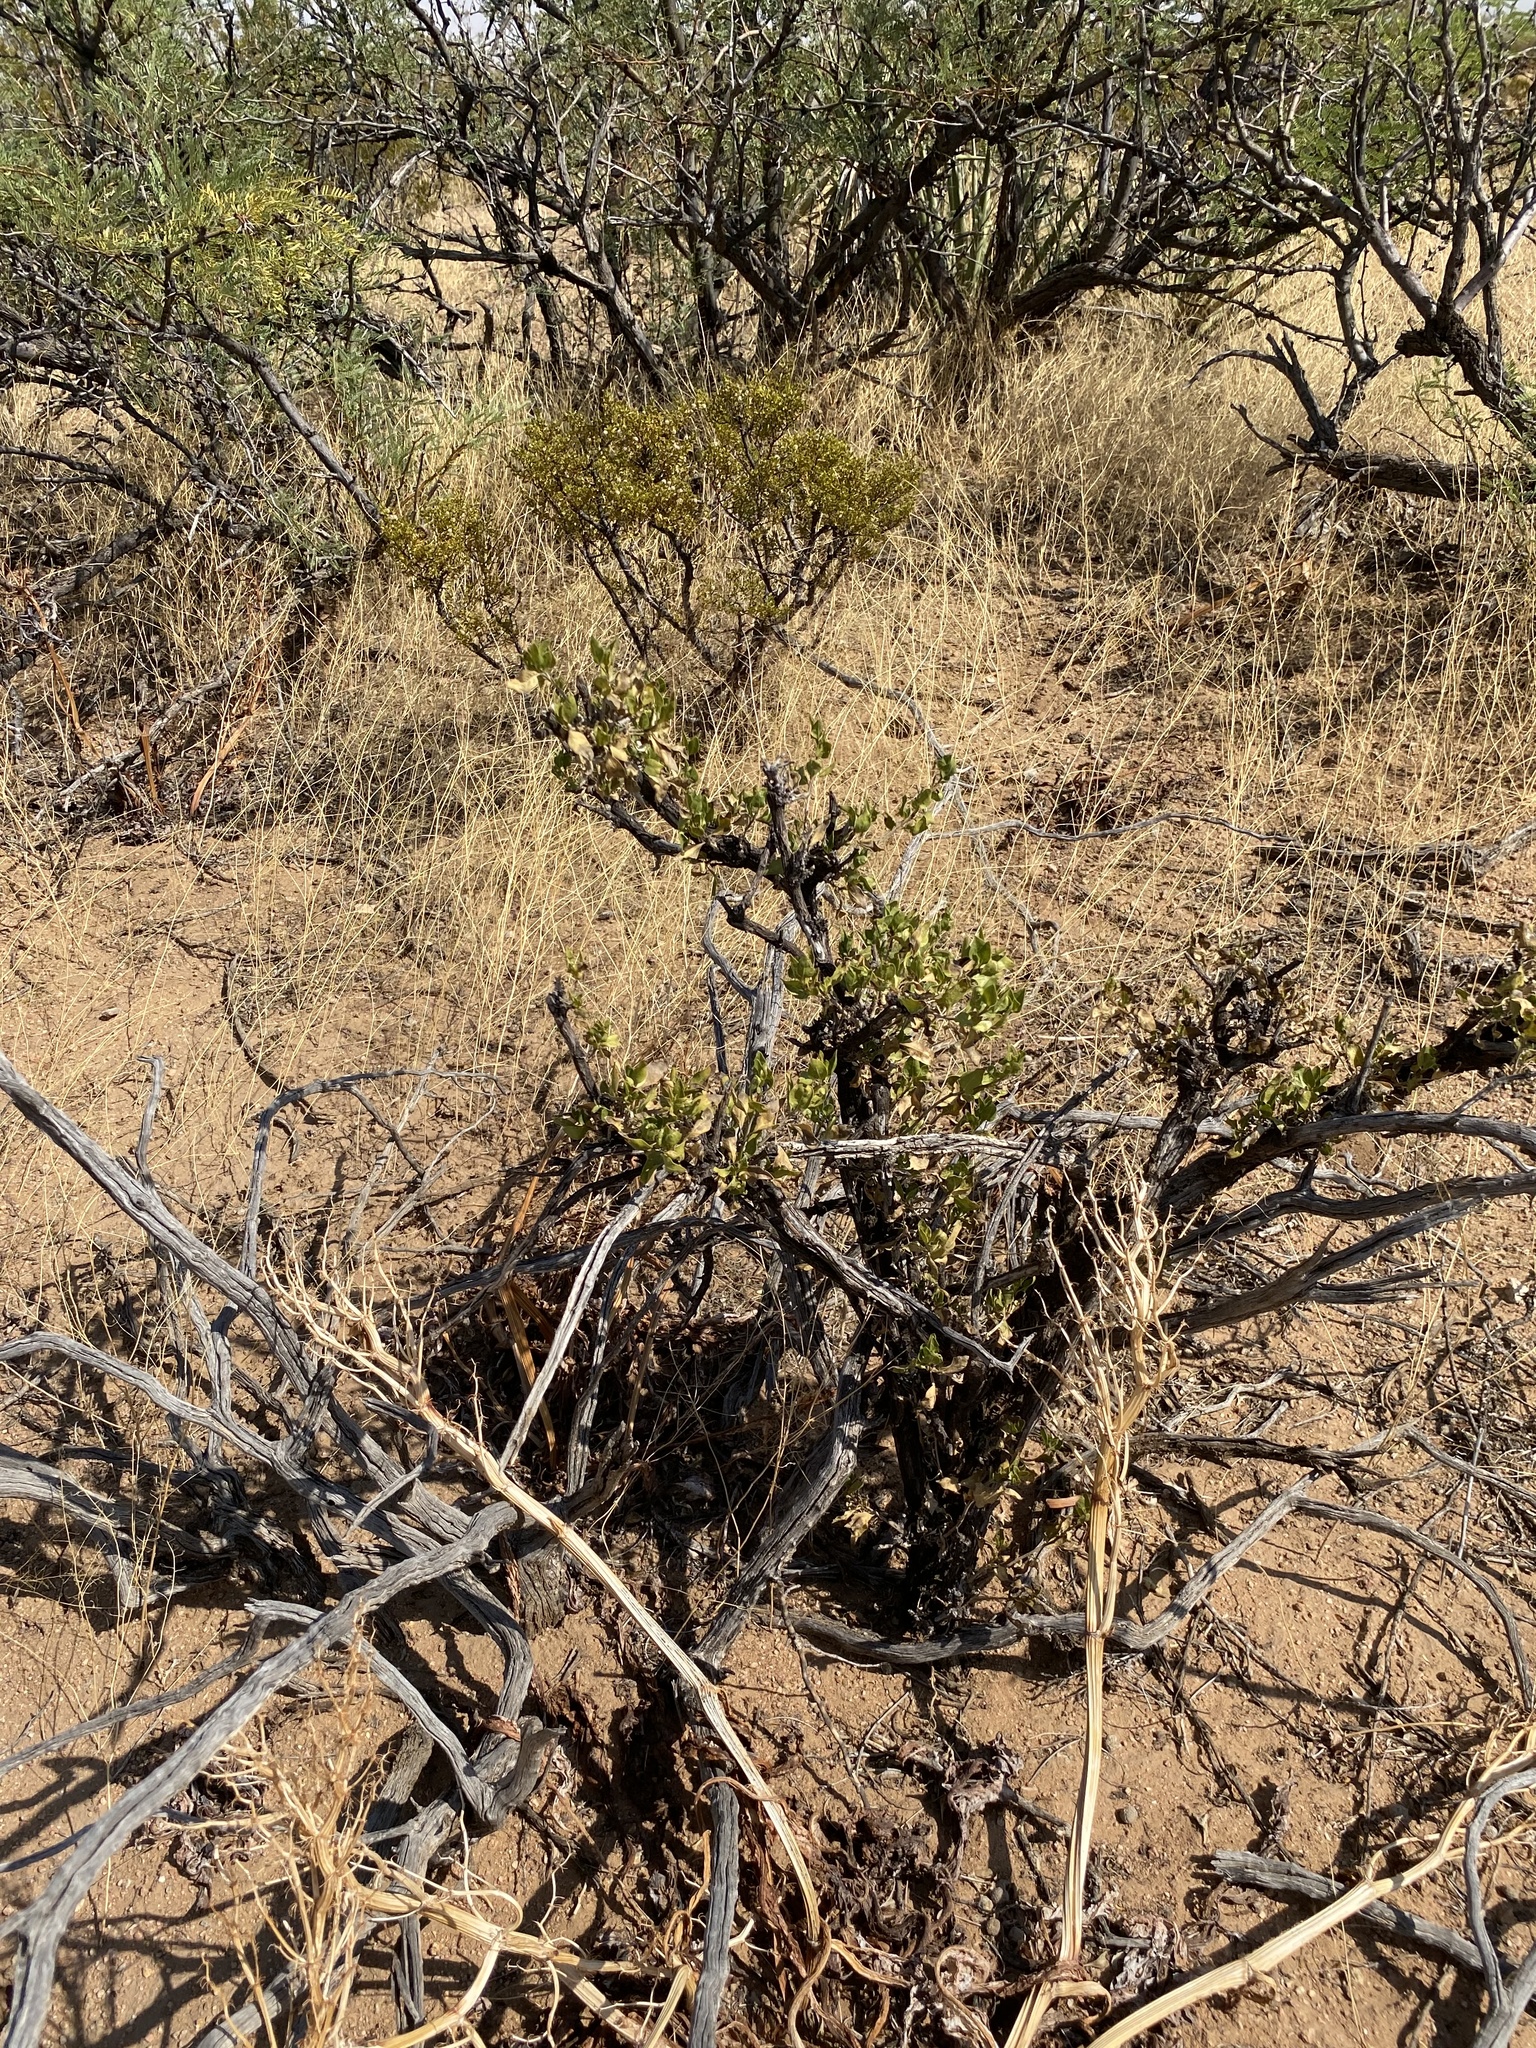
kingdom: Plantae
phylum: Tracheophyta
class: Magnoliopsida
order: Asterales
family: Asteraceae
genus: Flourensia
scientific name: Flourensia cernua
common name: Varnishbush
